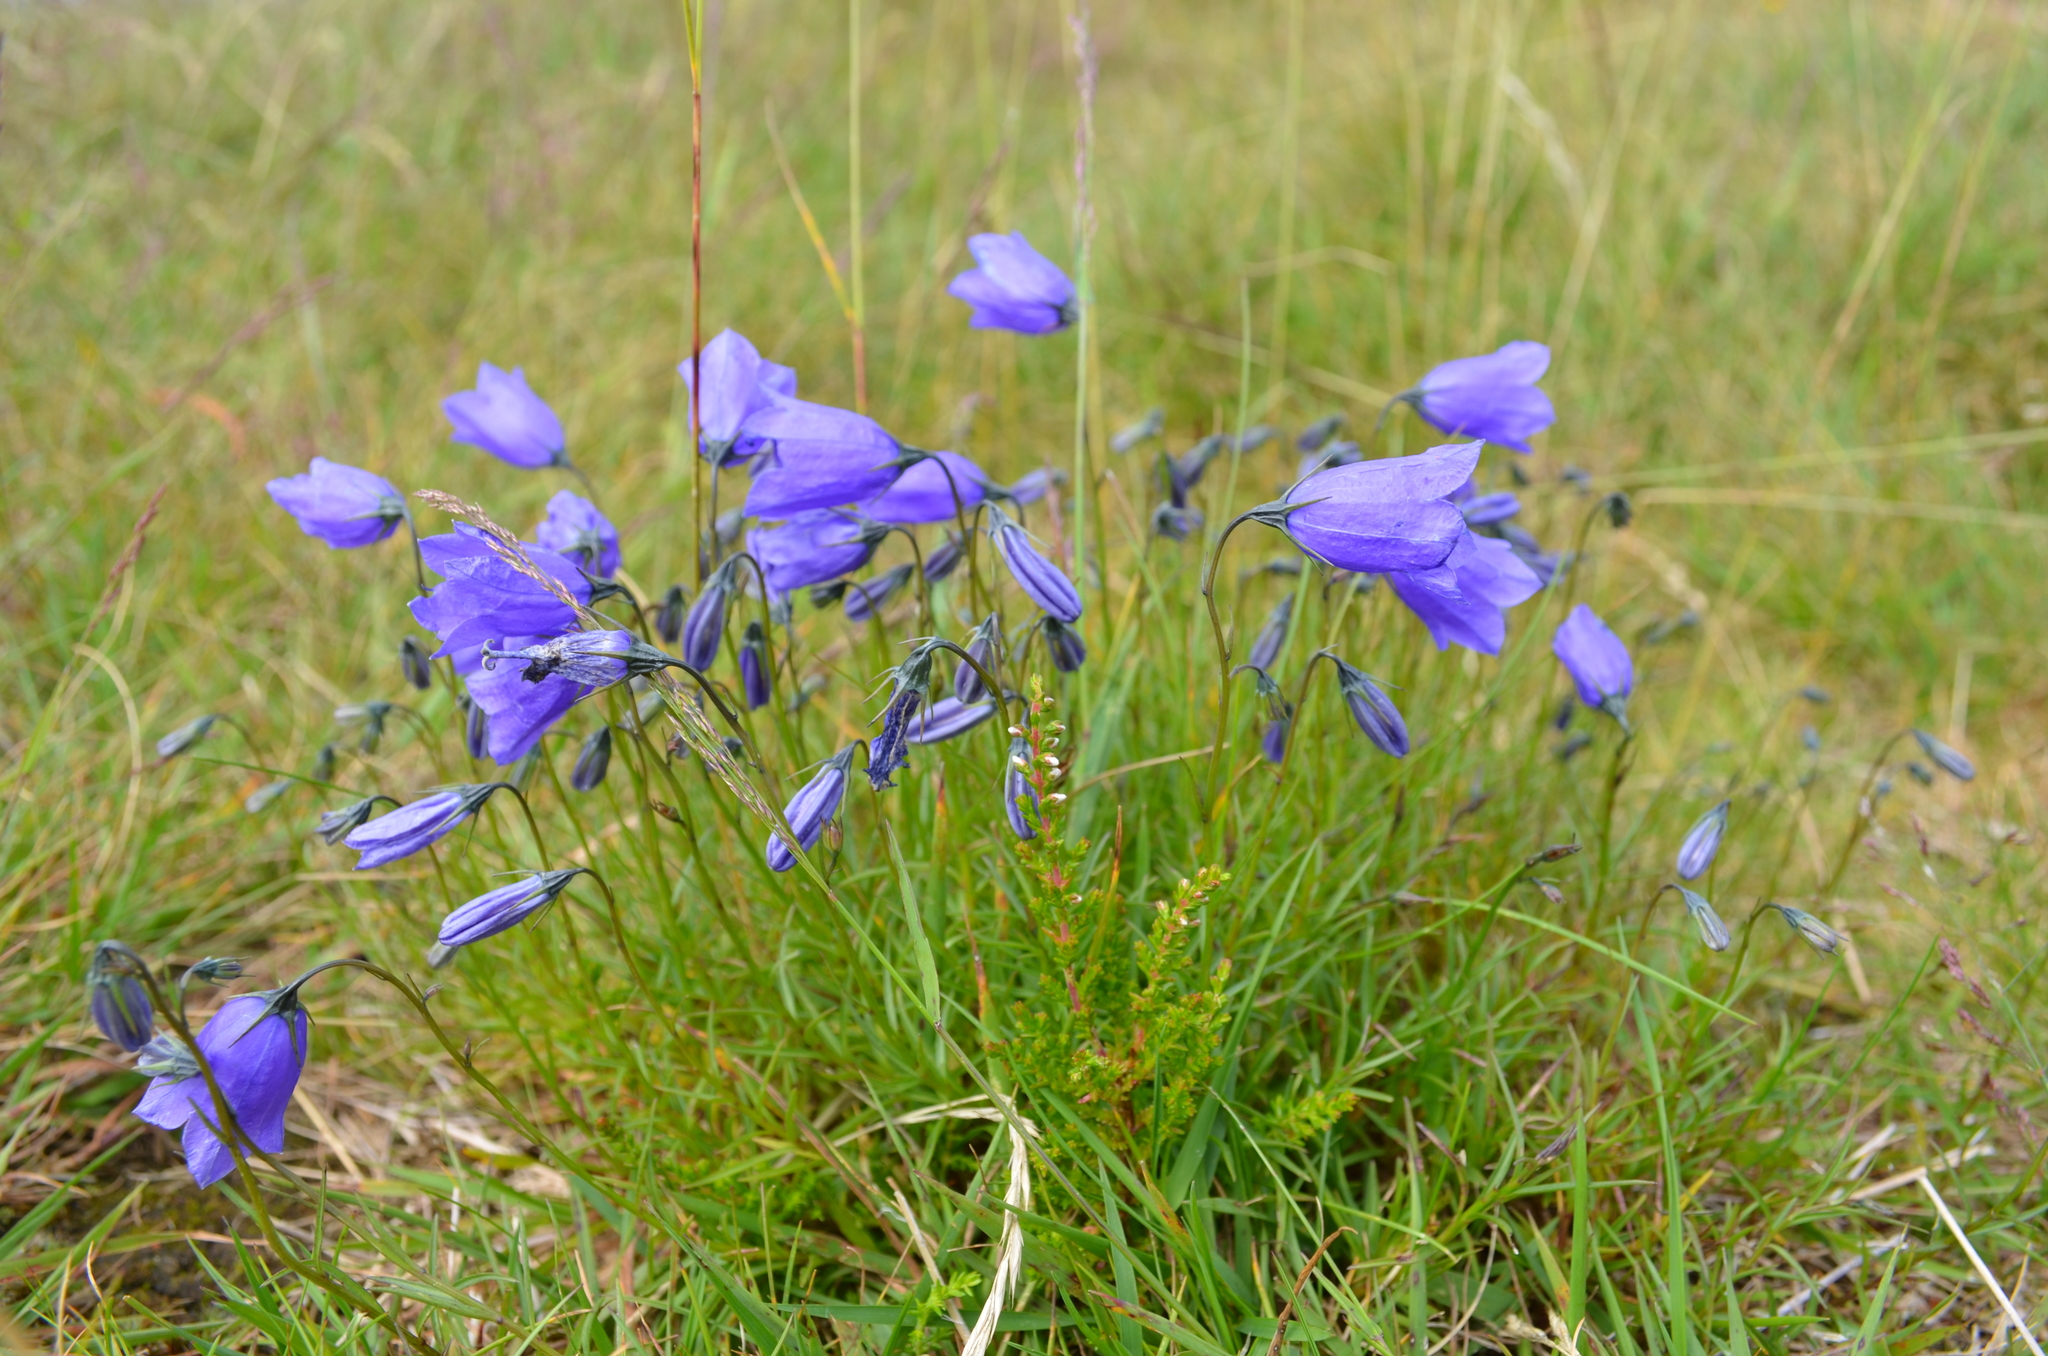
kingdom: Plantae
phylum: Tracheophyta
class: Magnoliopsida
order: Asterales
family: Campanulaceae
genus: Campanula
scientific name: Campanula scheuchzeri
